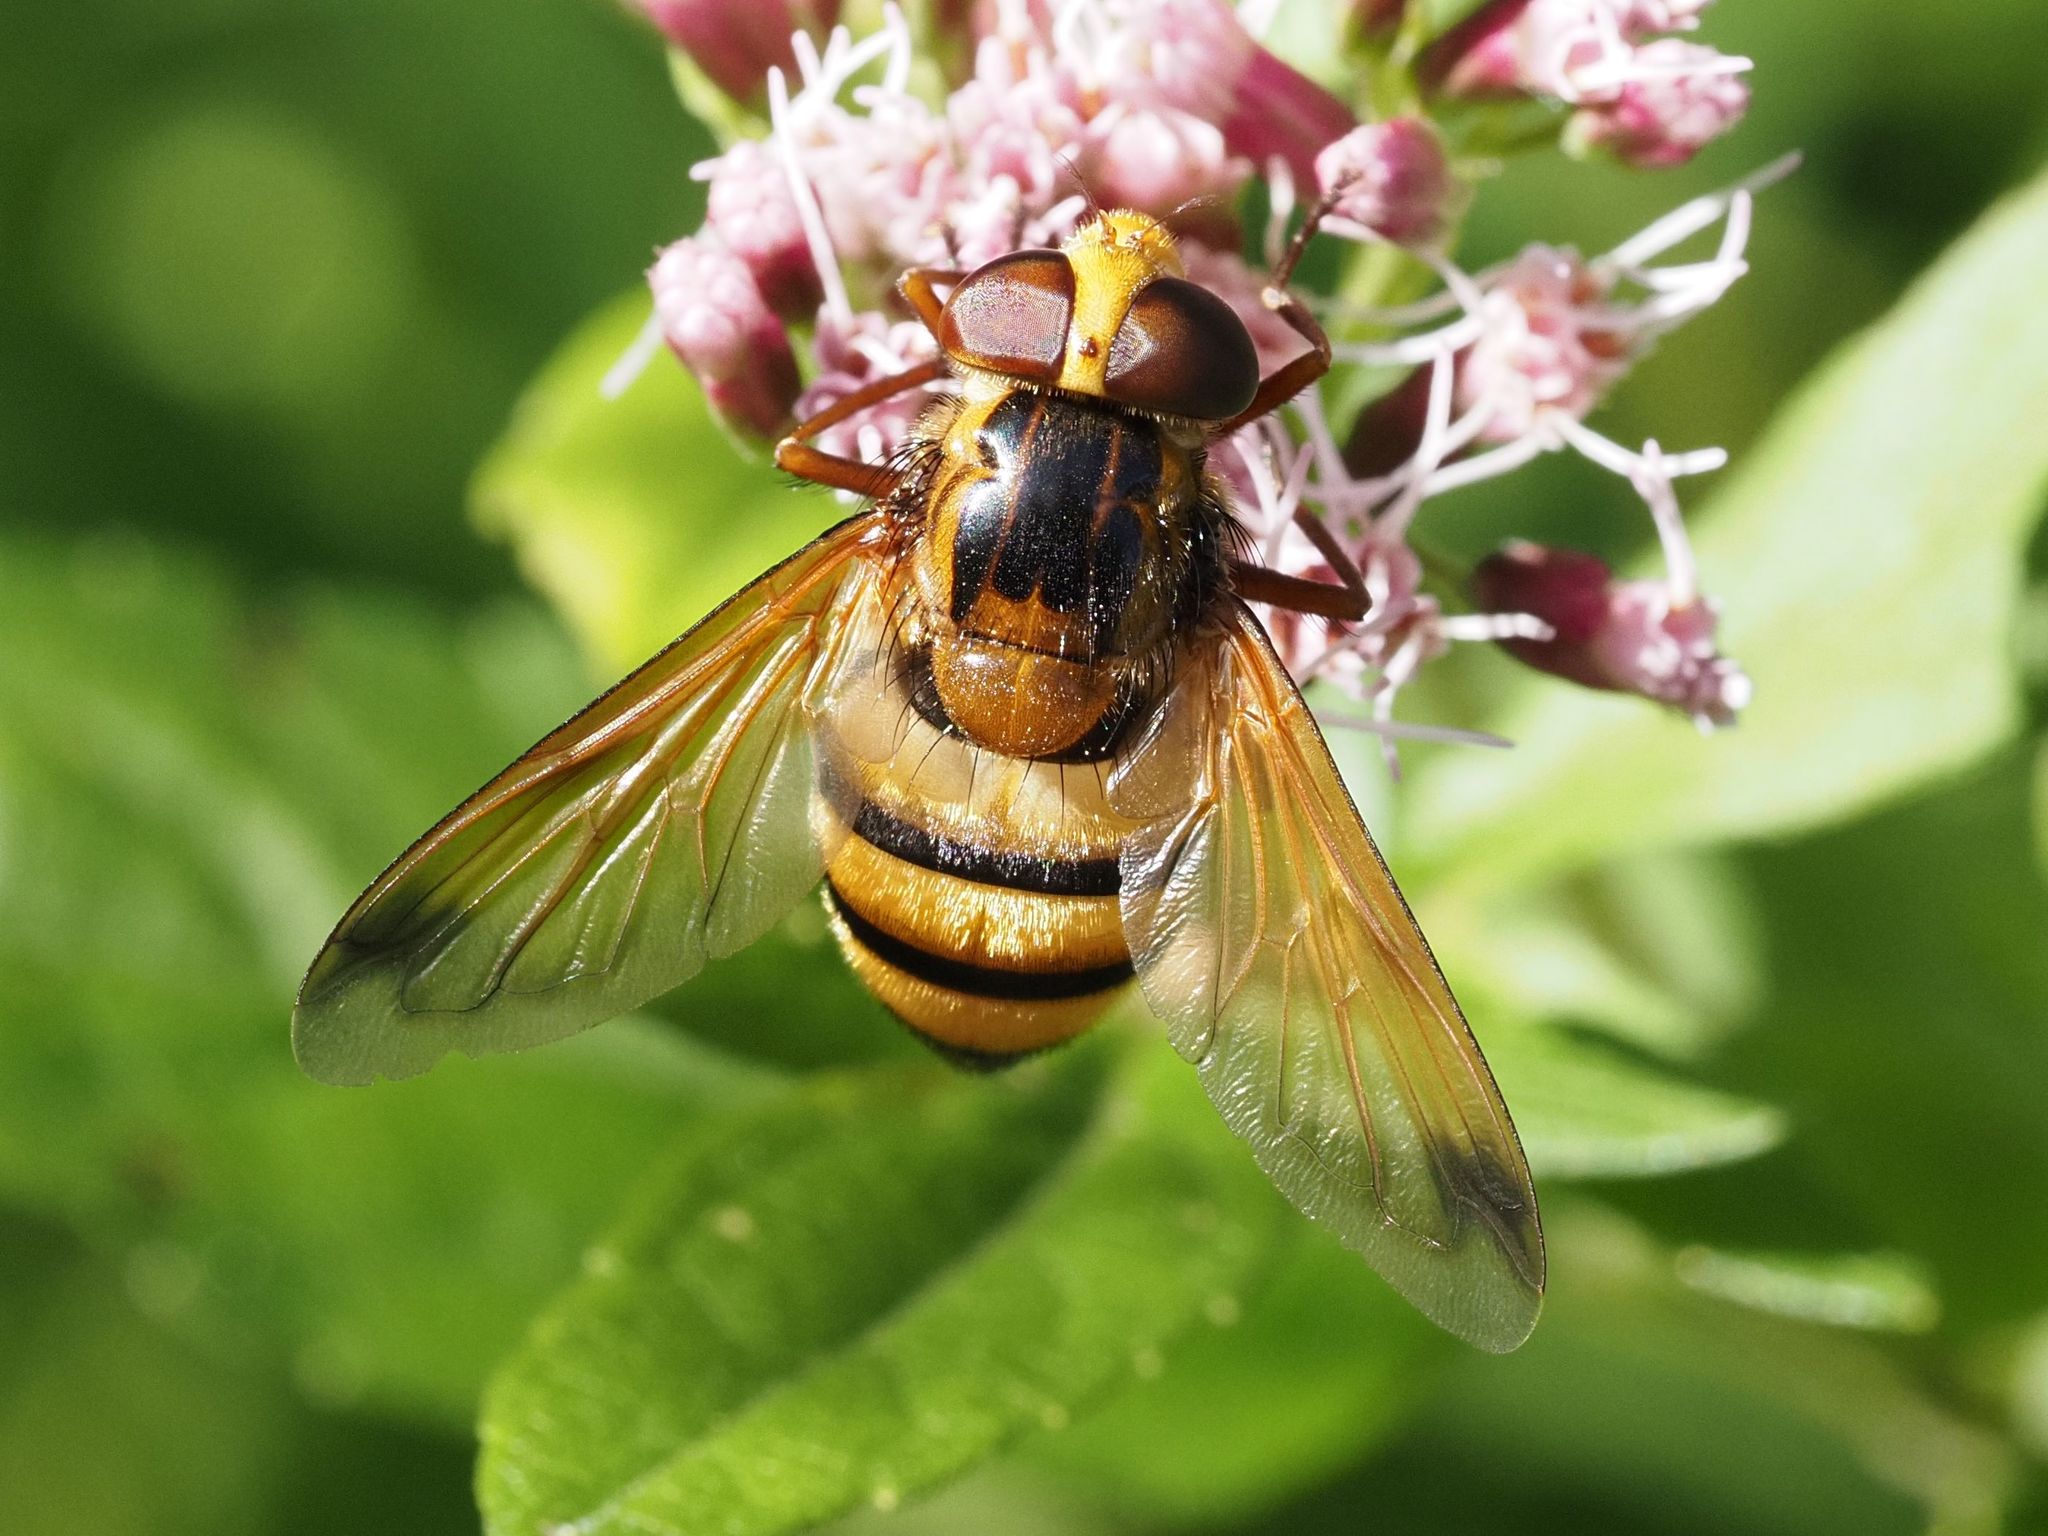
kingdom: Animalia
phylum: Arthropoda
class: Insecta
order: Diptera
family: Syrphidae
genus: Volucella
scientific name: Volucella inanis
